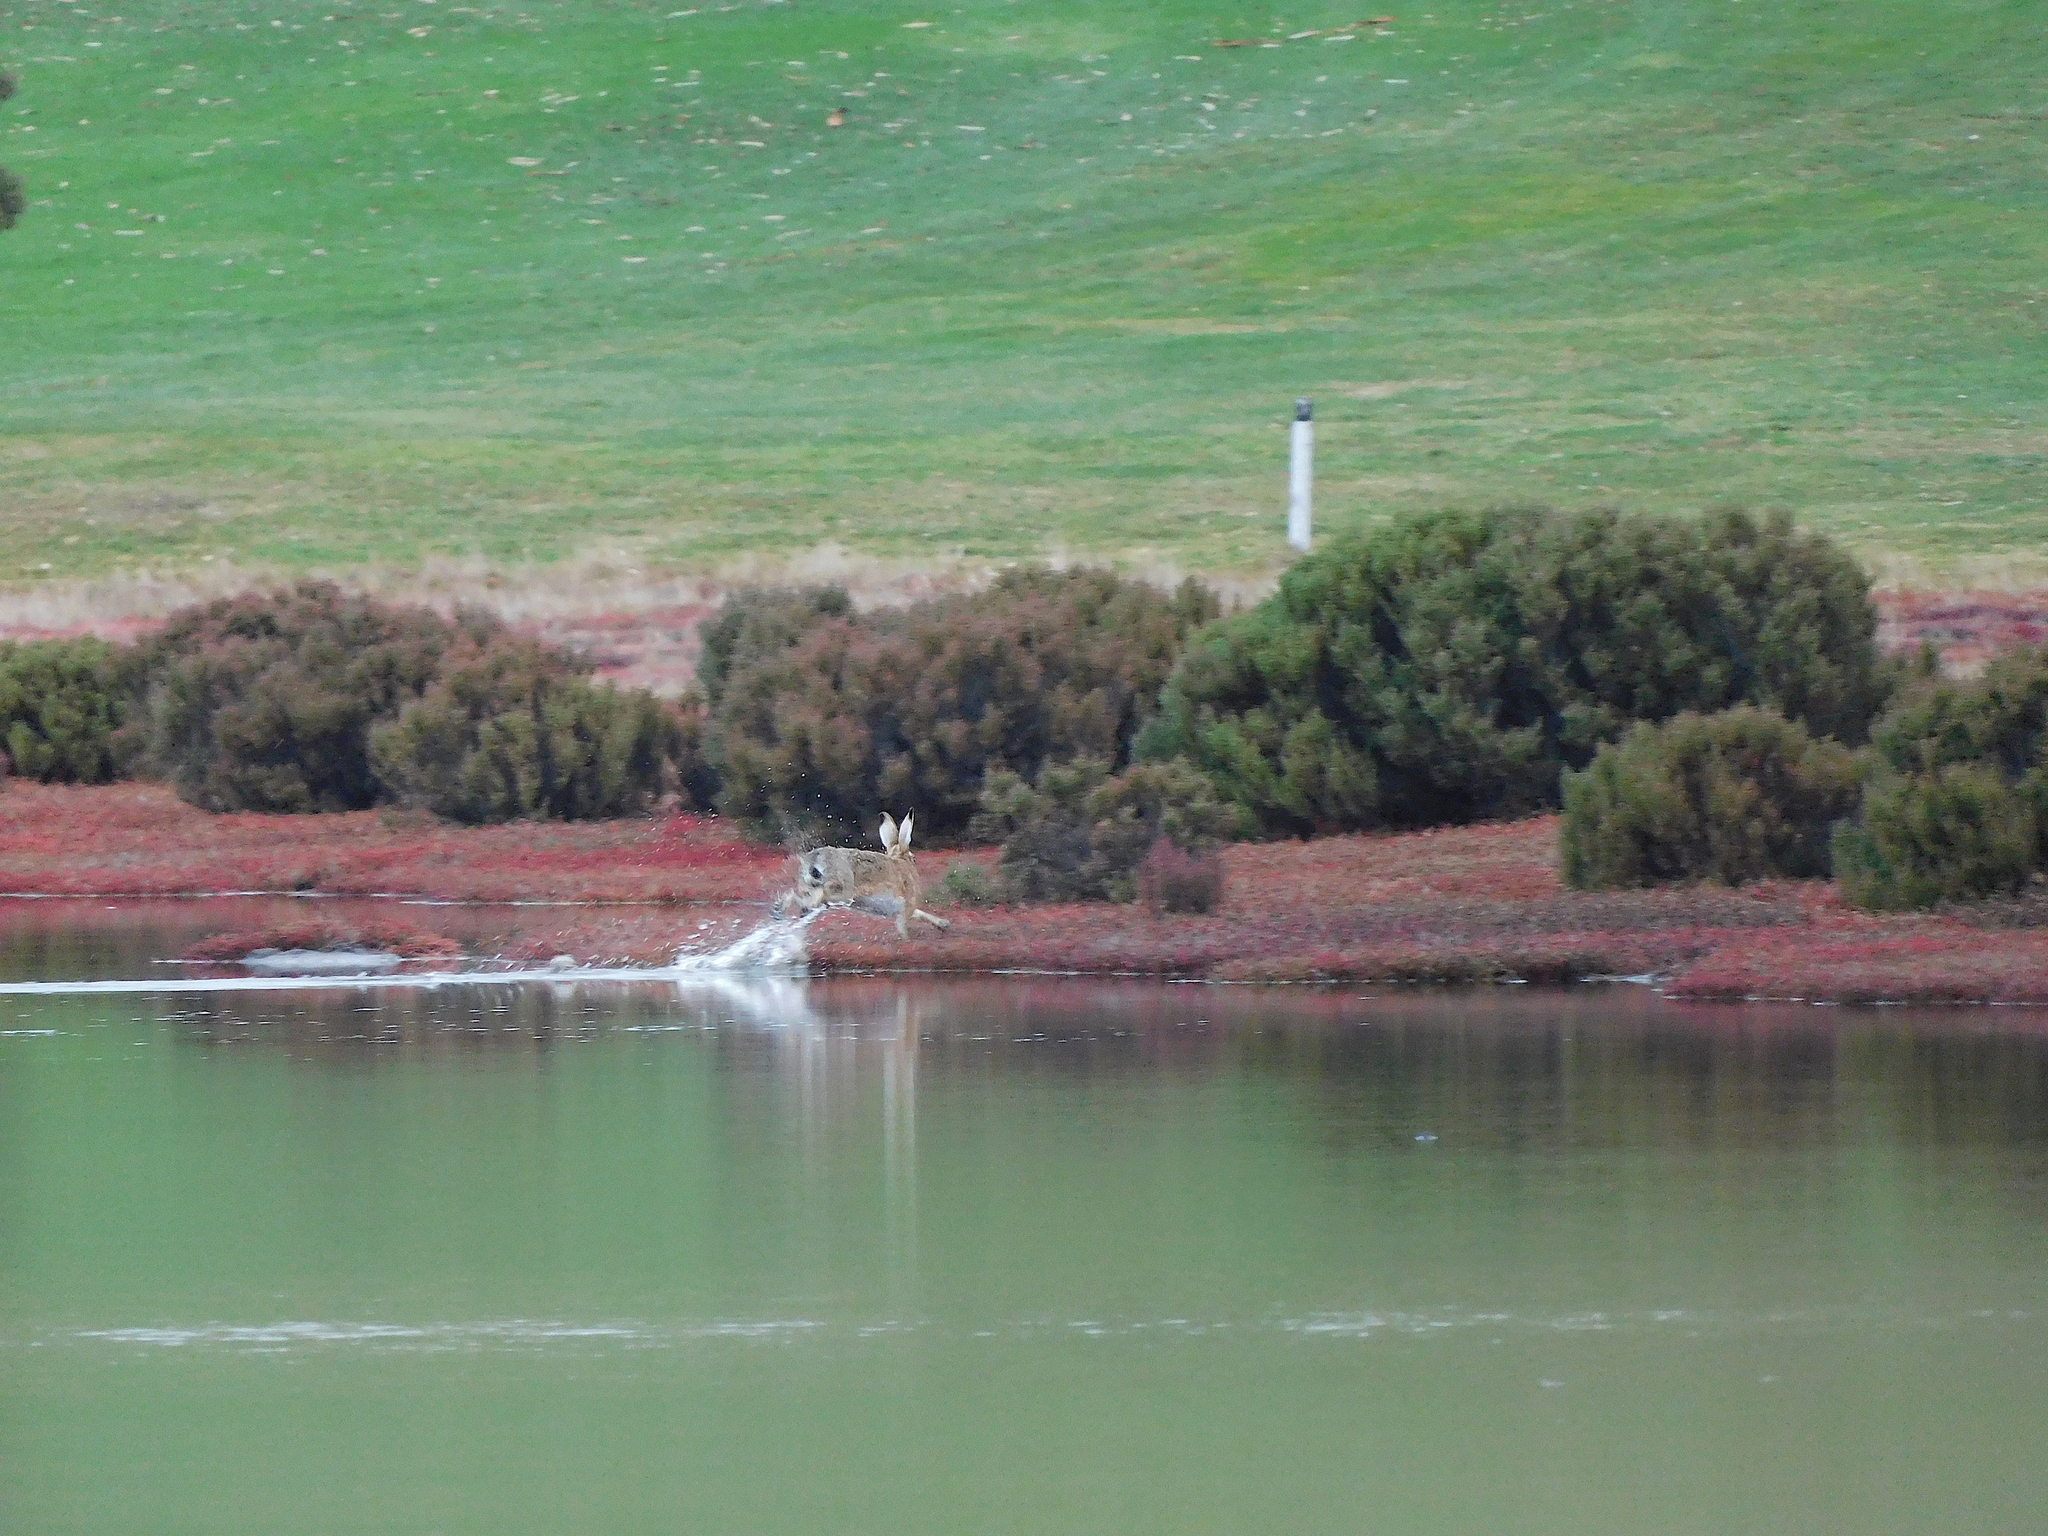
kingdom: Animalia
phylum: Chordata
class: Mammalia
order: Lagomorpha
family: Leporidae
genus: Lepus
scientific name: Lepus europaeus
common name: European hare
